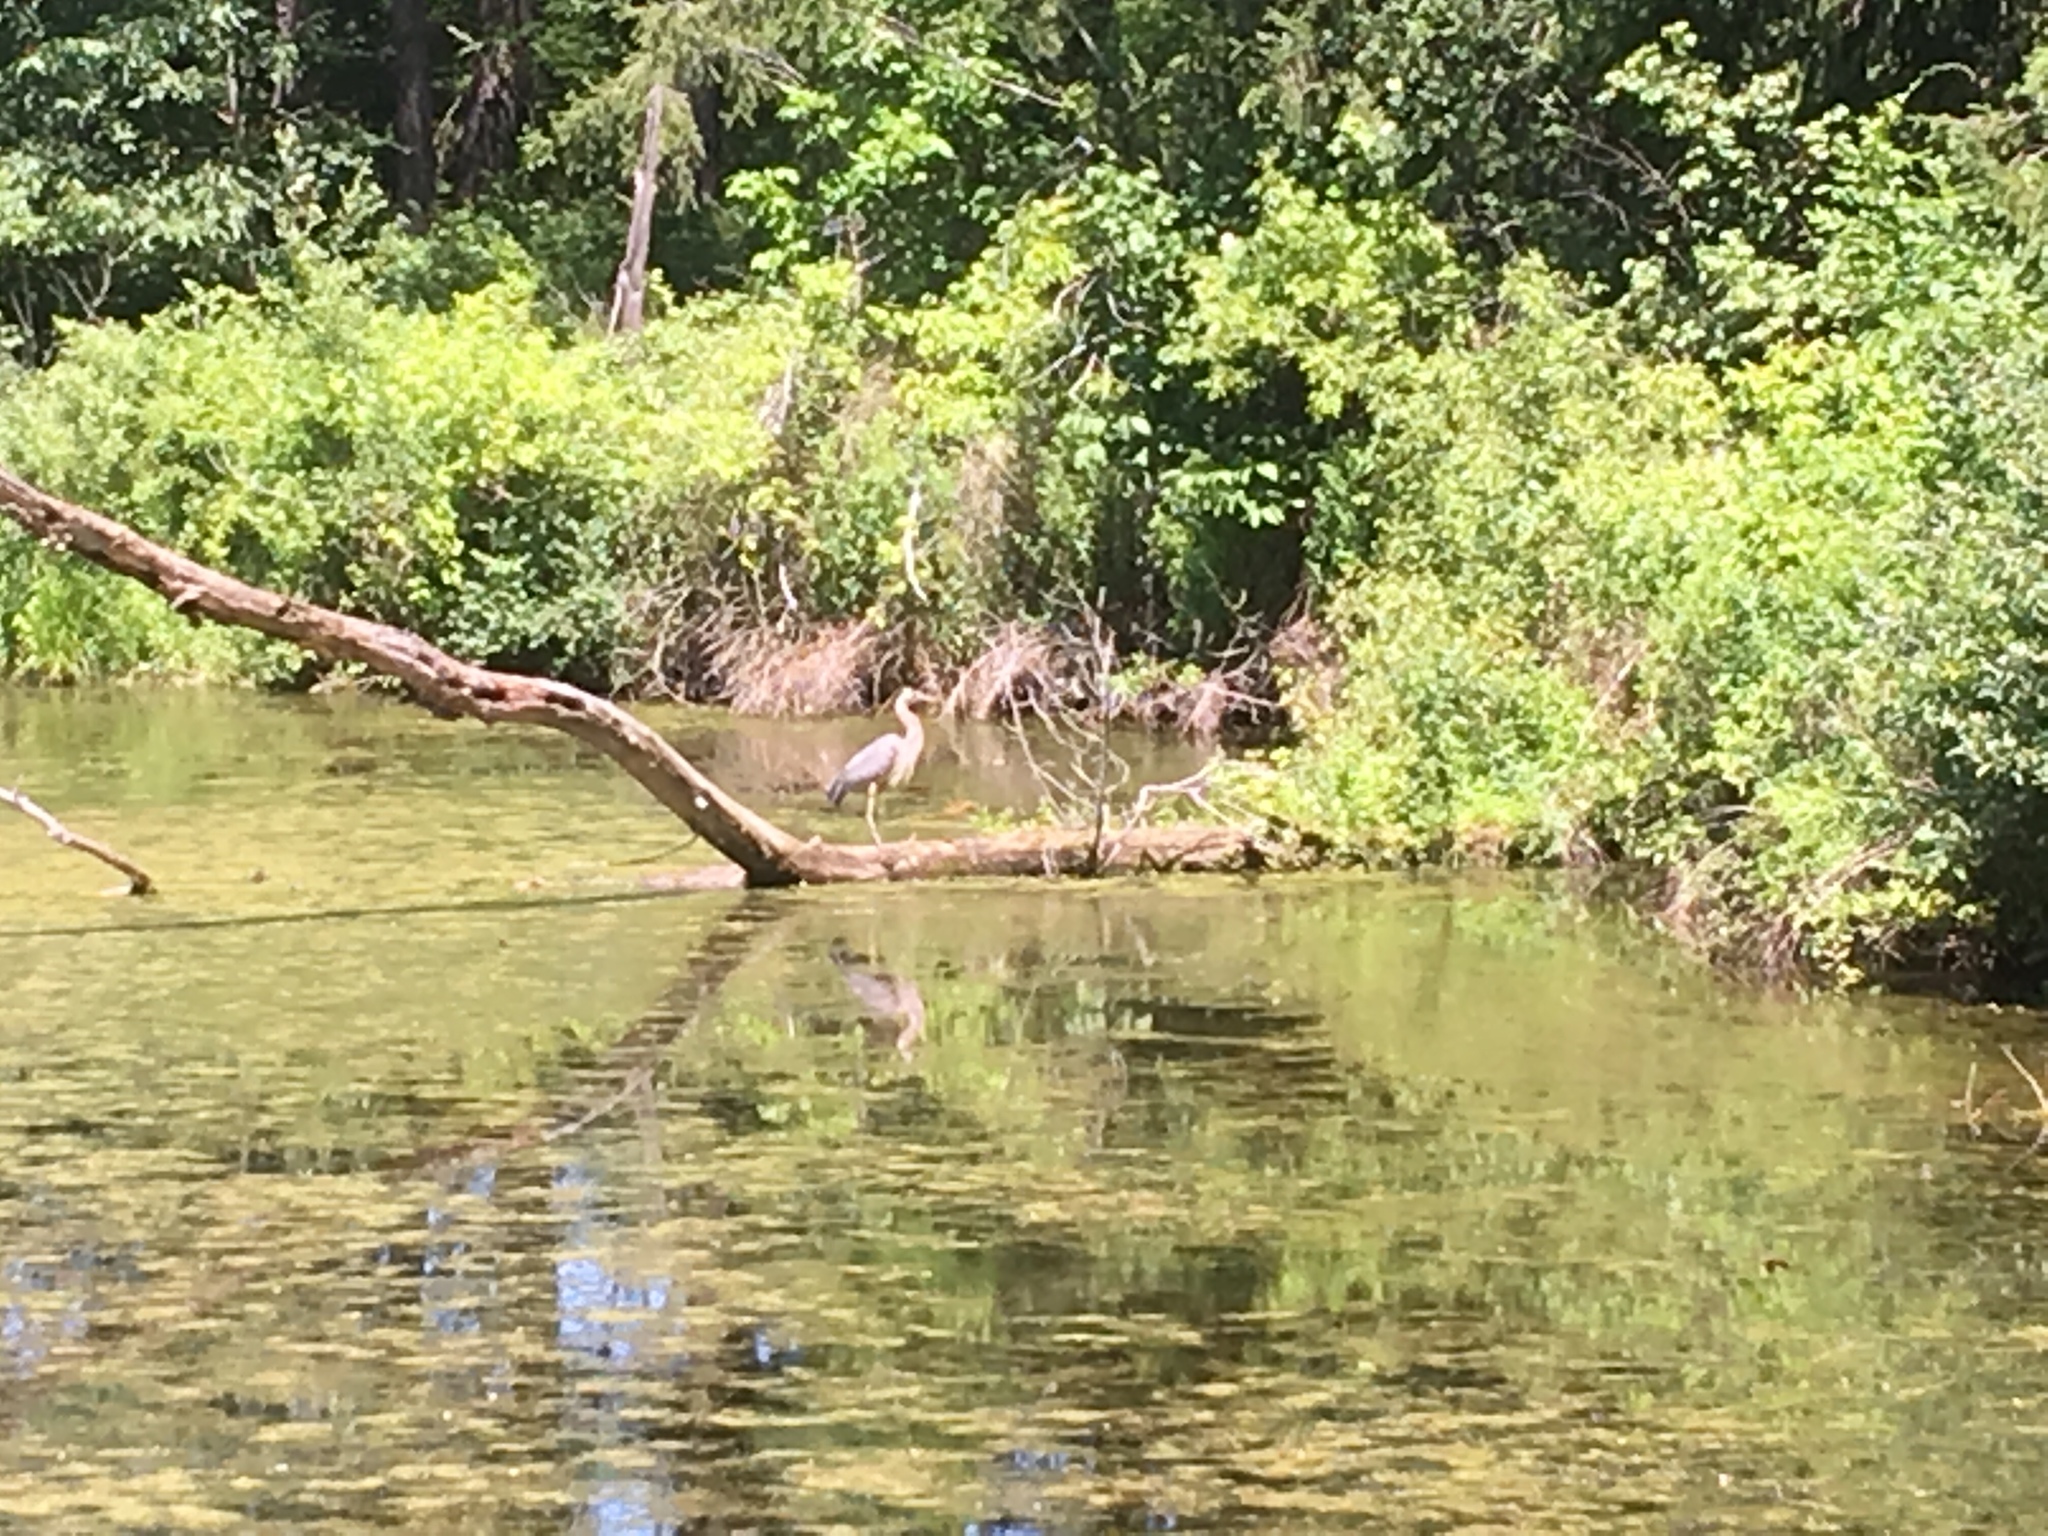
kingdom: Animalia
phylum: Chordata
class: Aves
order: Pelecaniformes
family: Ardeidae
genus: Ardea
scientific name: Ardea herodias
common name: Great blue heron
